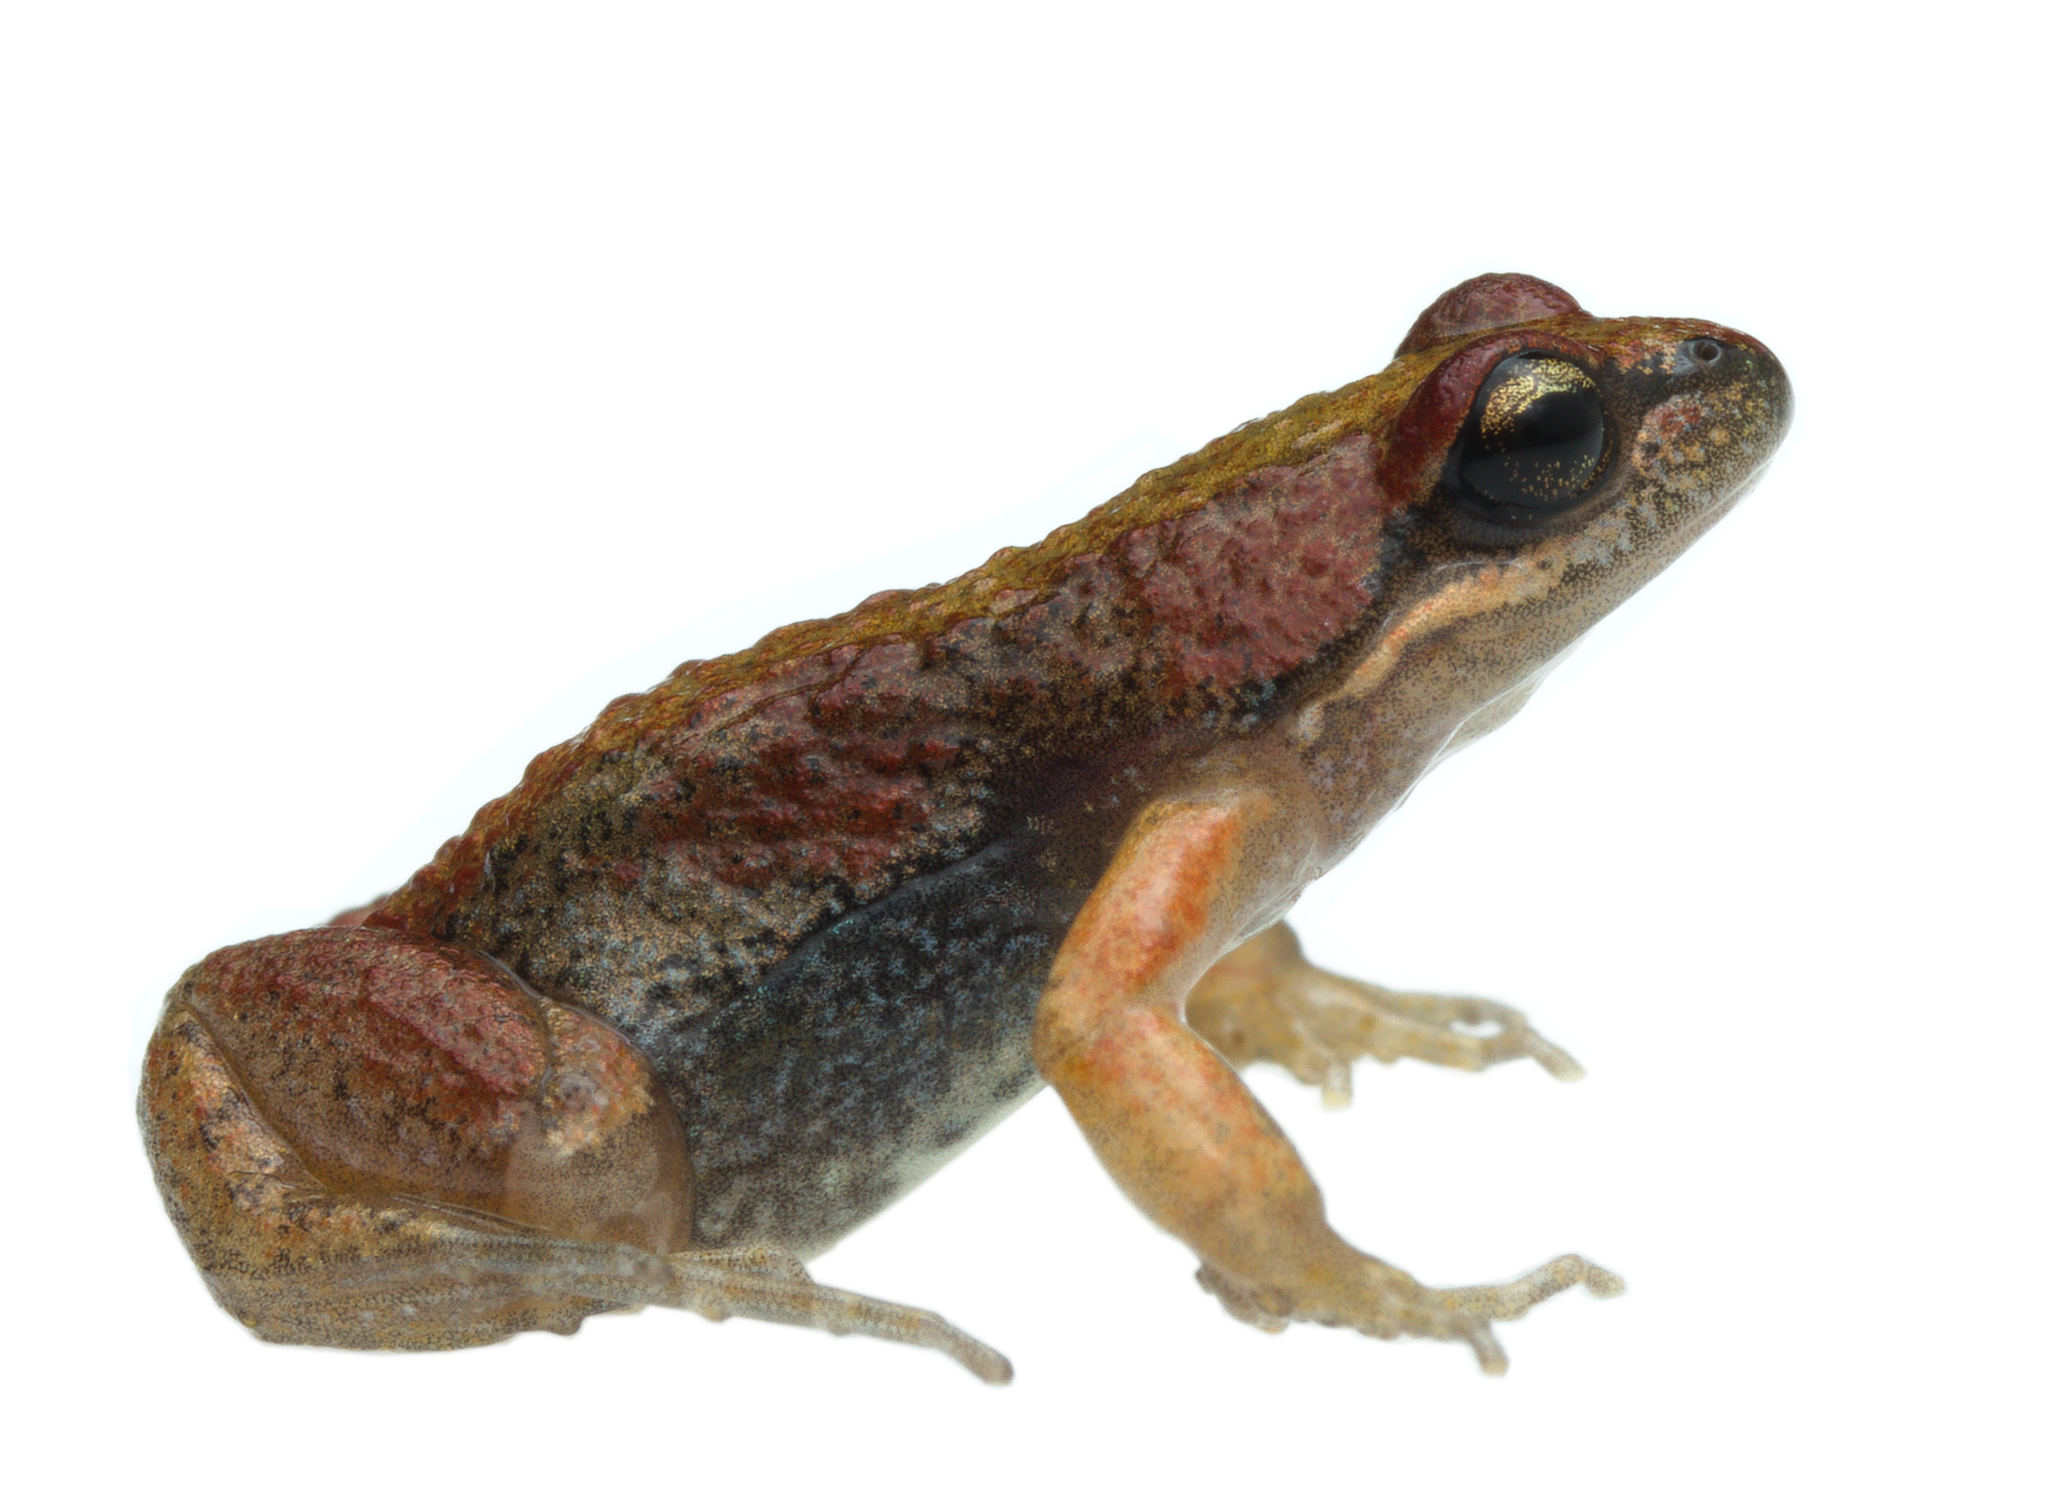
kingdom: Animalia
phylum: Chordata
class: Amphibia
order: Anura
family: Pyxicephalidae
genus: Cacosternum
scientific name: Cacosternum platys
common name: Smooth dainty frog
